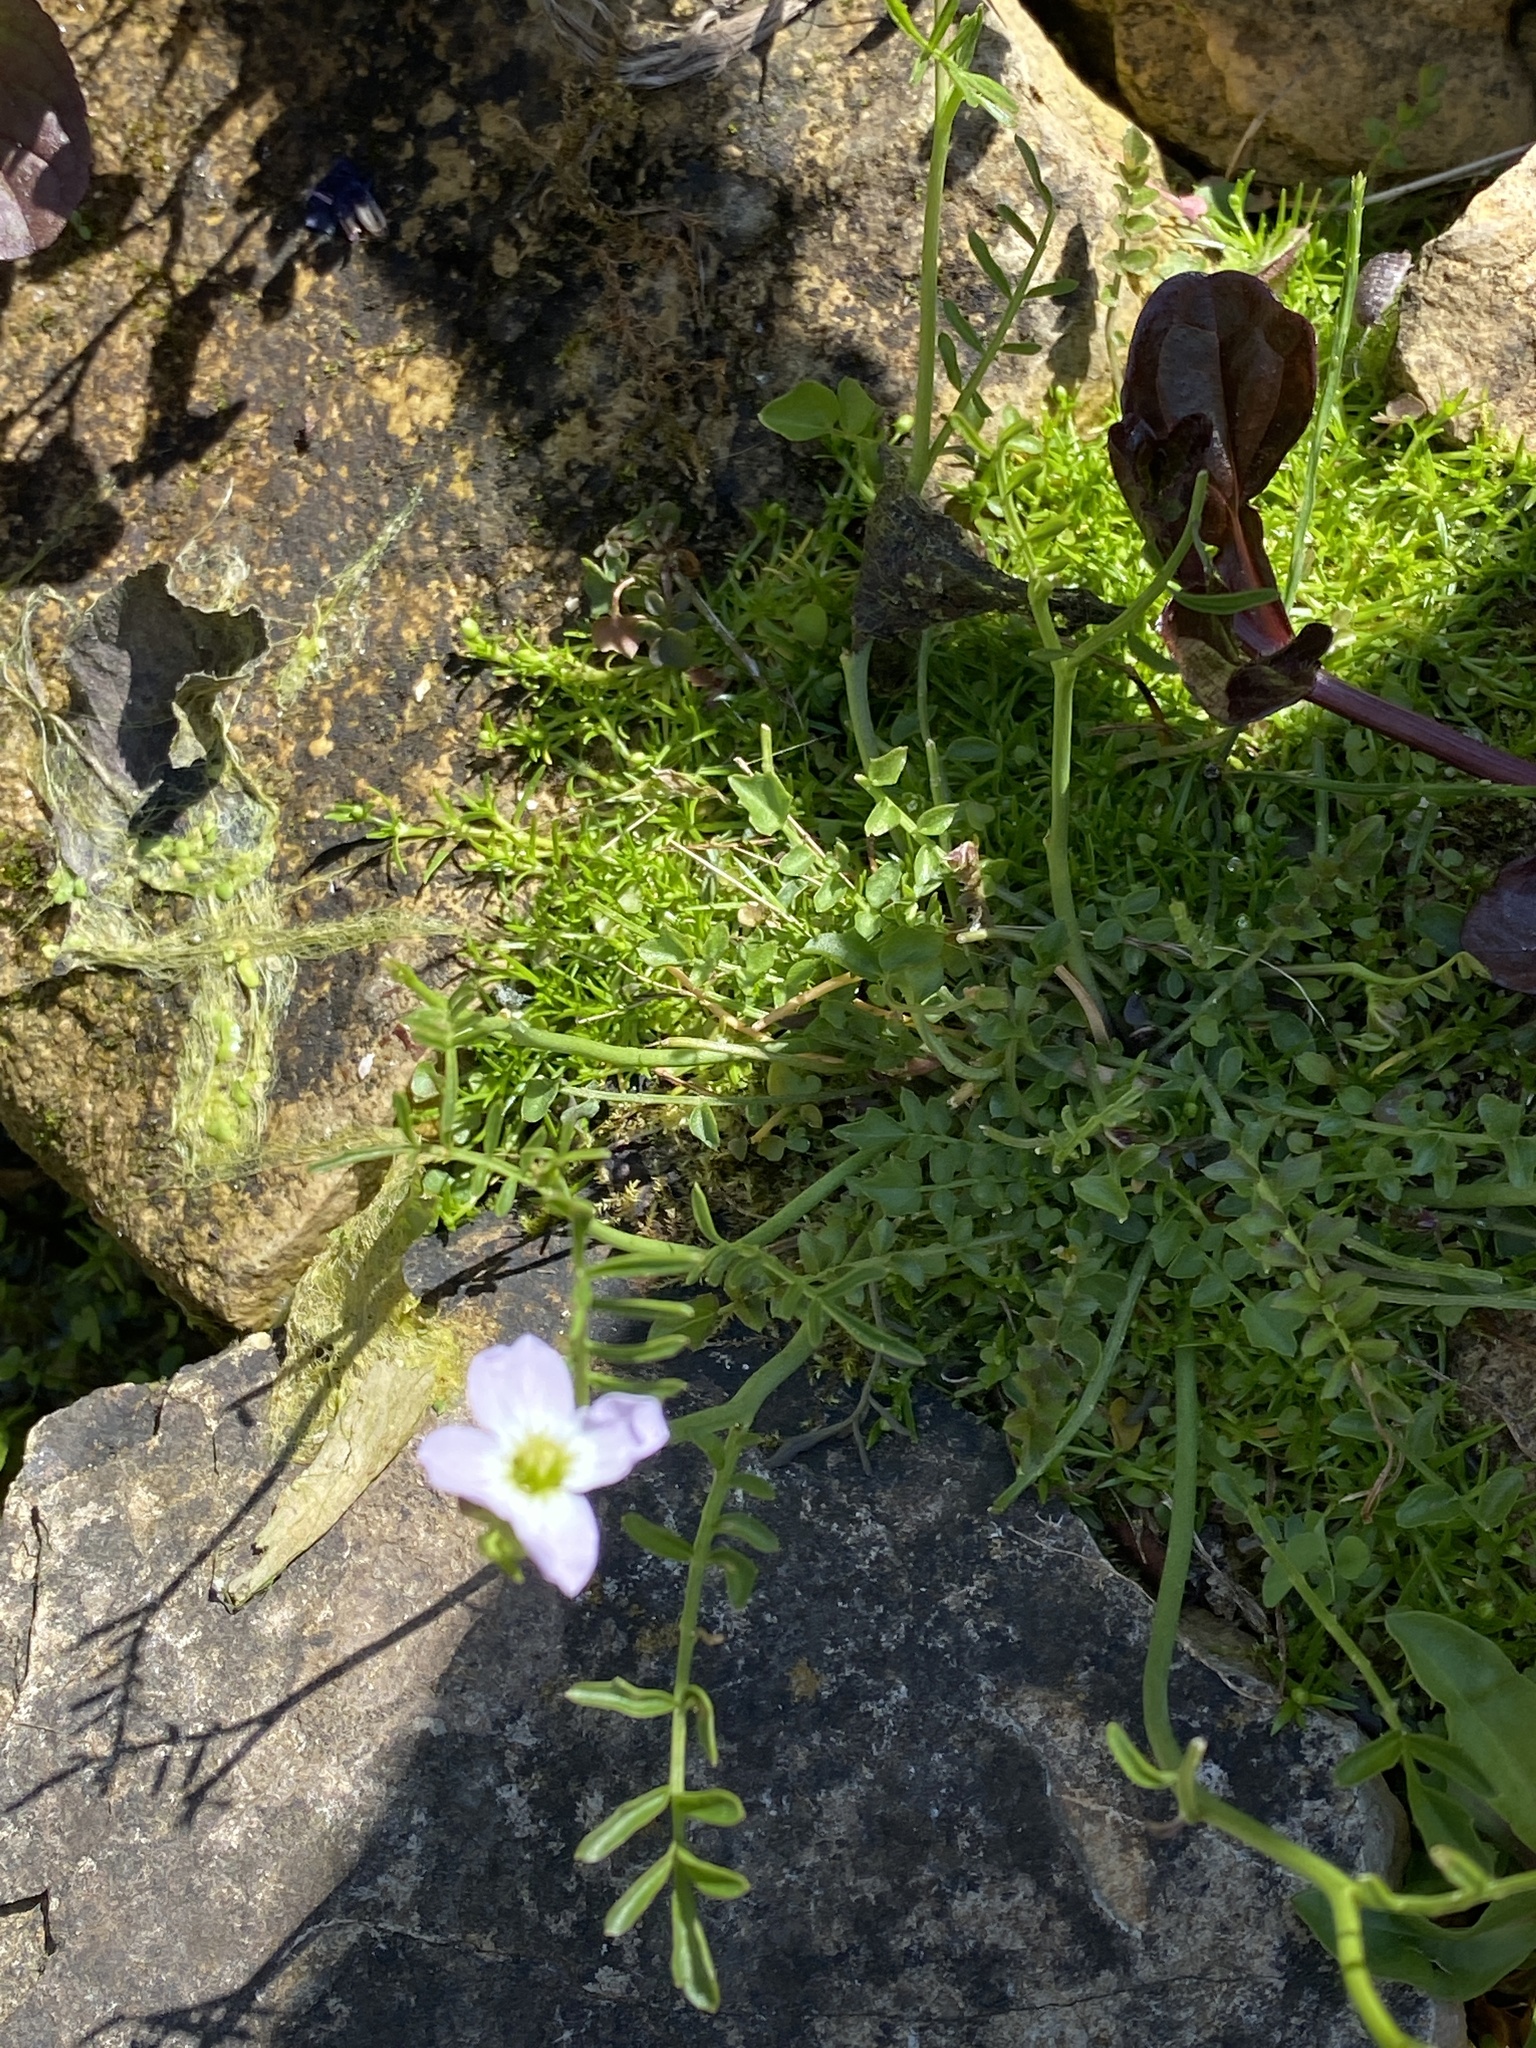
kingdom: Plantae
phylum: Tracheophyta
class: Magnoliopsida
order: Brassicales
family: Brassicaceae
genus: Cardamine
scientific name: Cardamine pratensis
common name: Cuckoo flower
